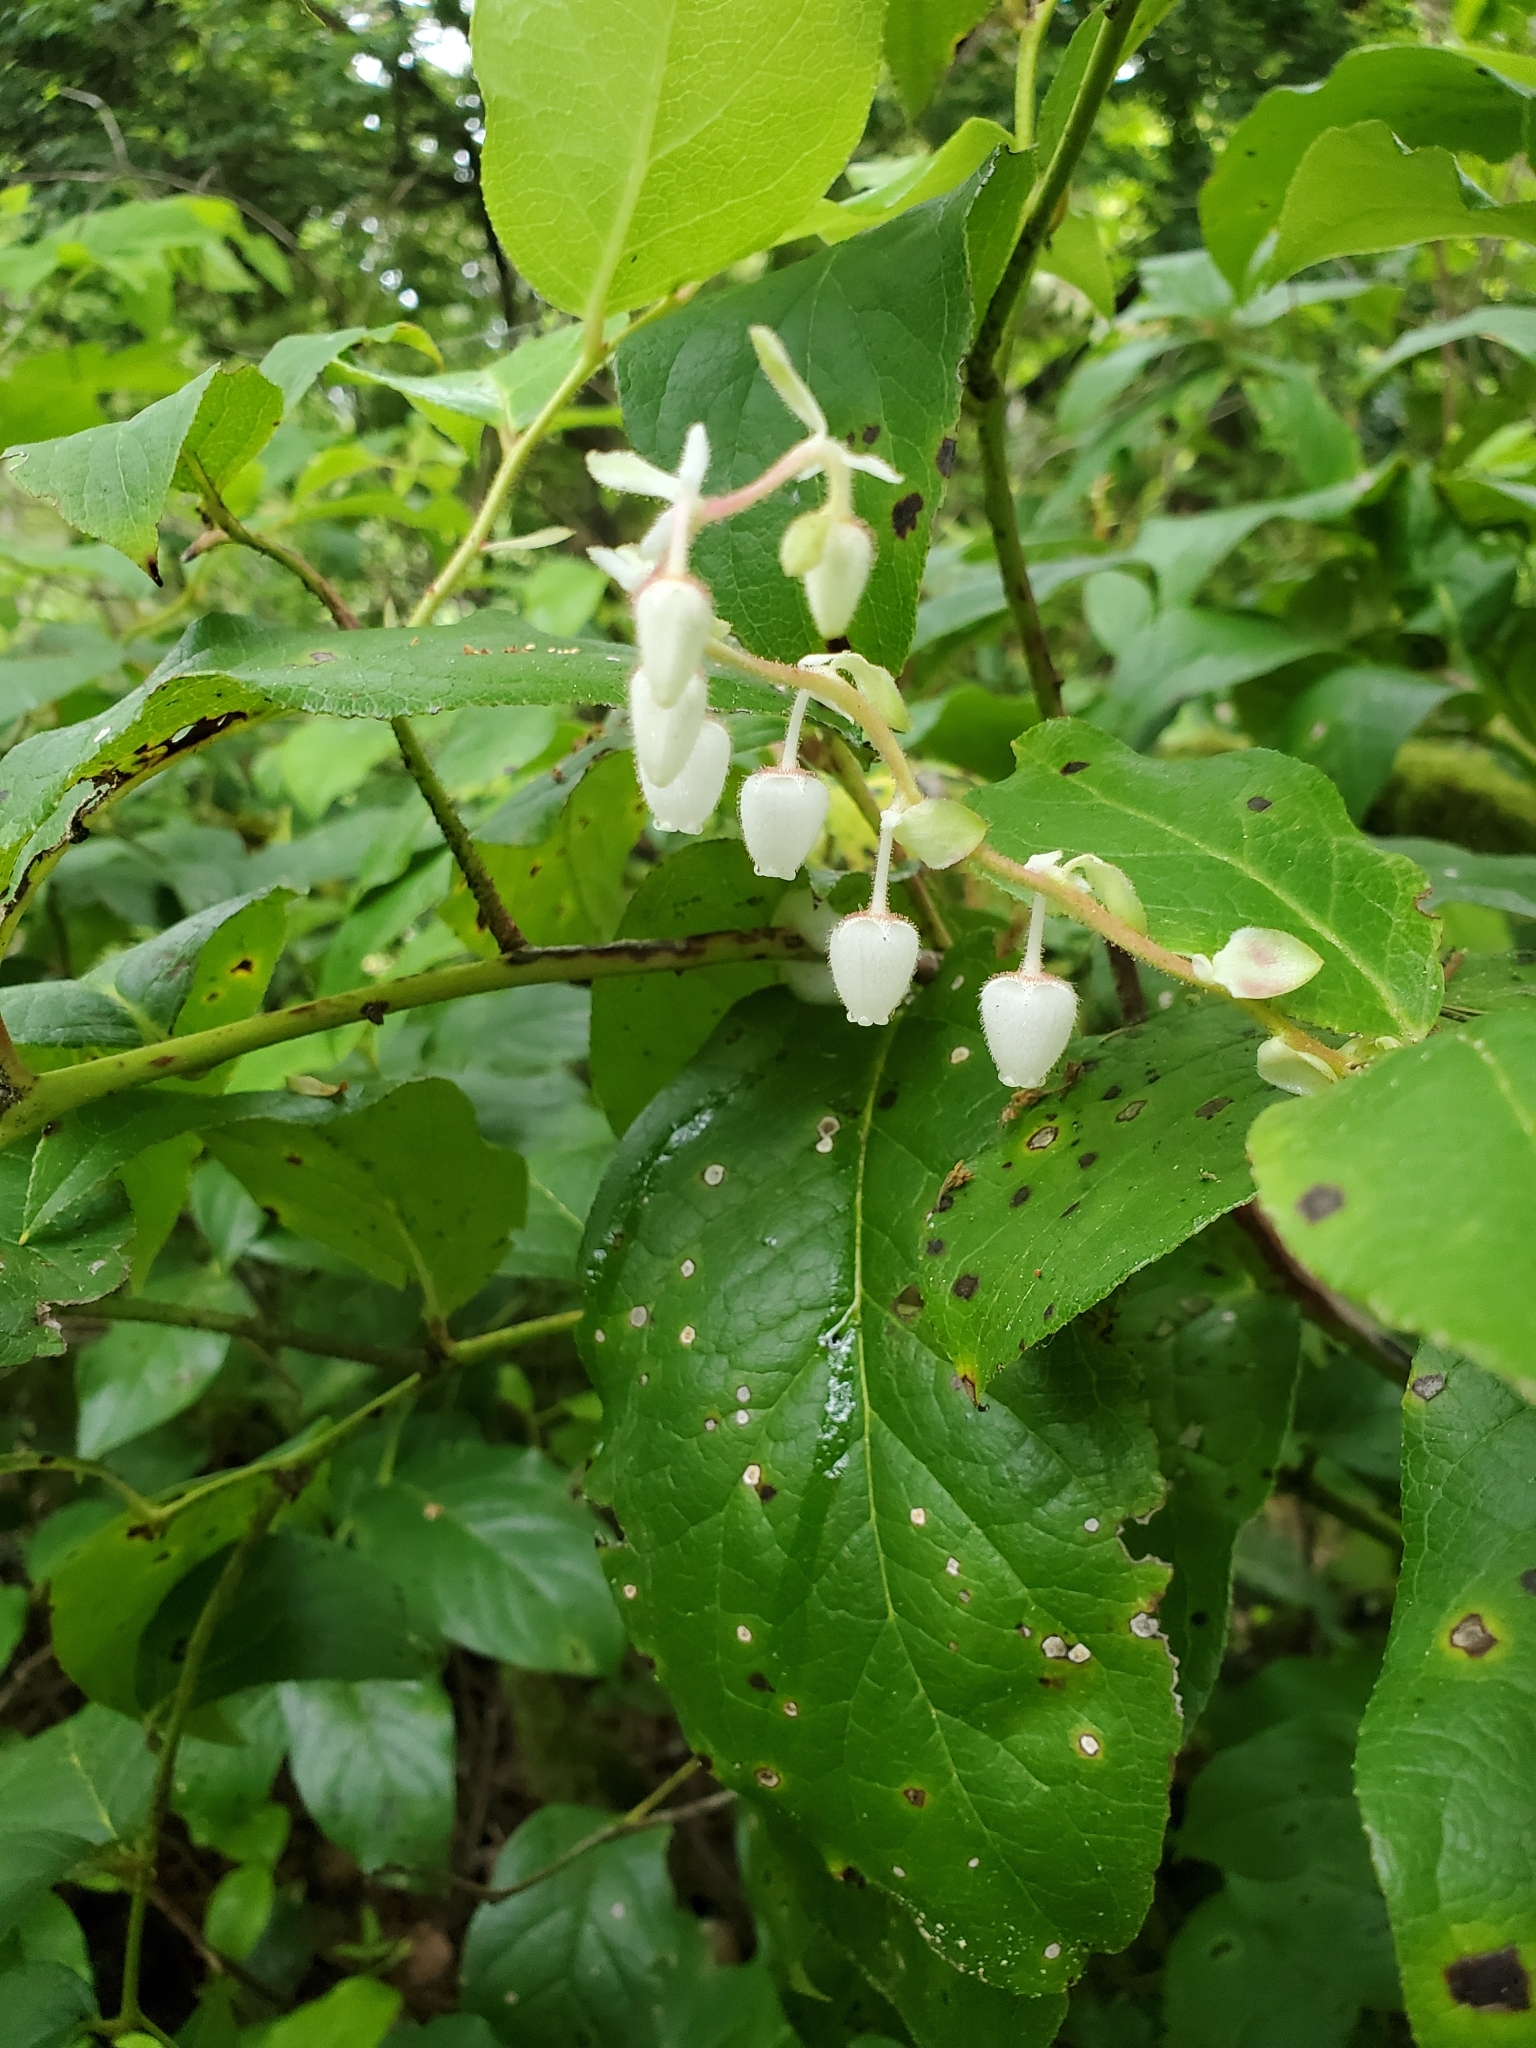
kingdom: Plantae
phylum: Tracheophyta
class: Magnoliopsida
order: Ericales
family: Ericaceae
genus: Gaultheria
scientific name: Gaultheria shallon
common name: Shallon
